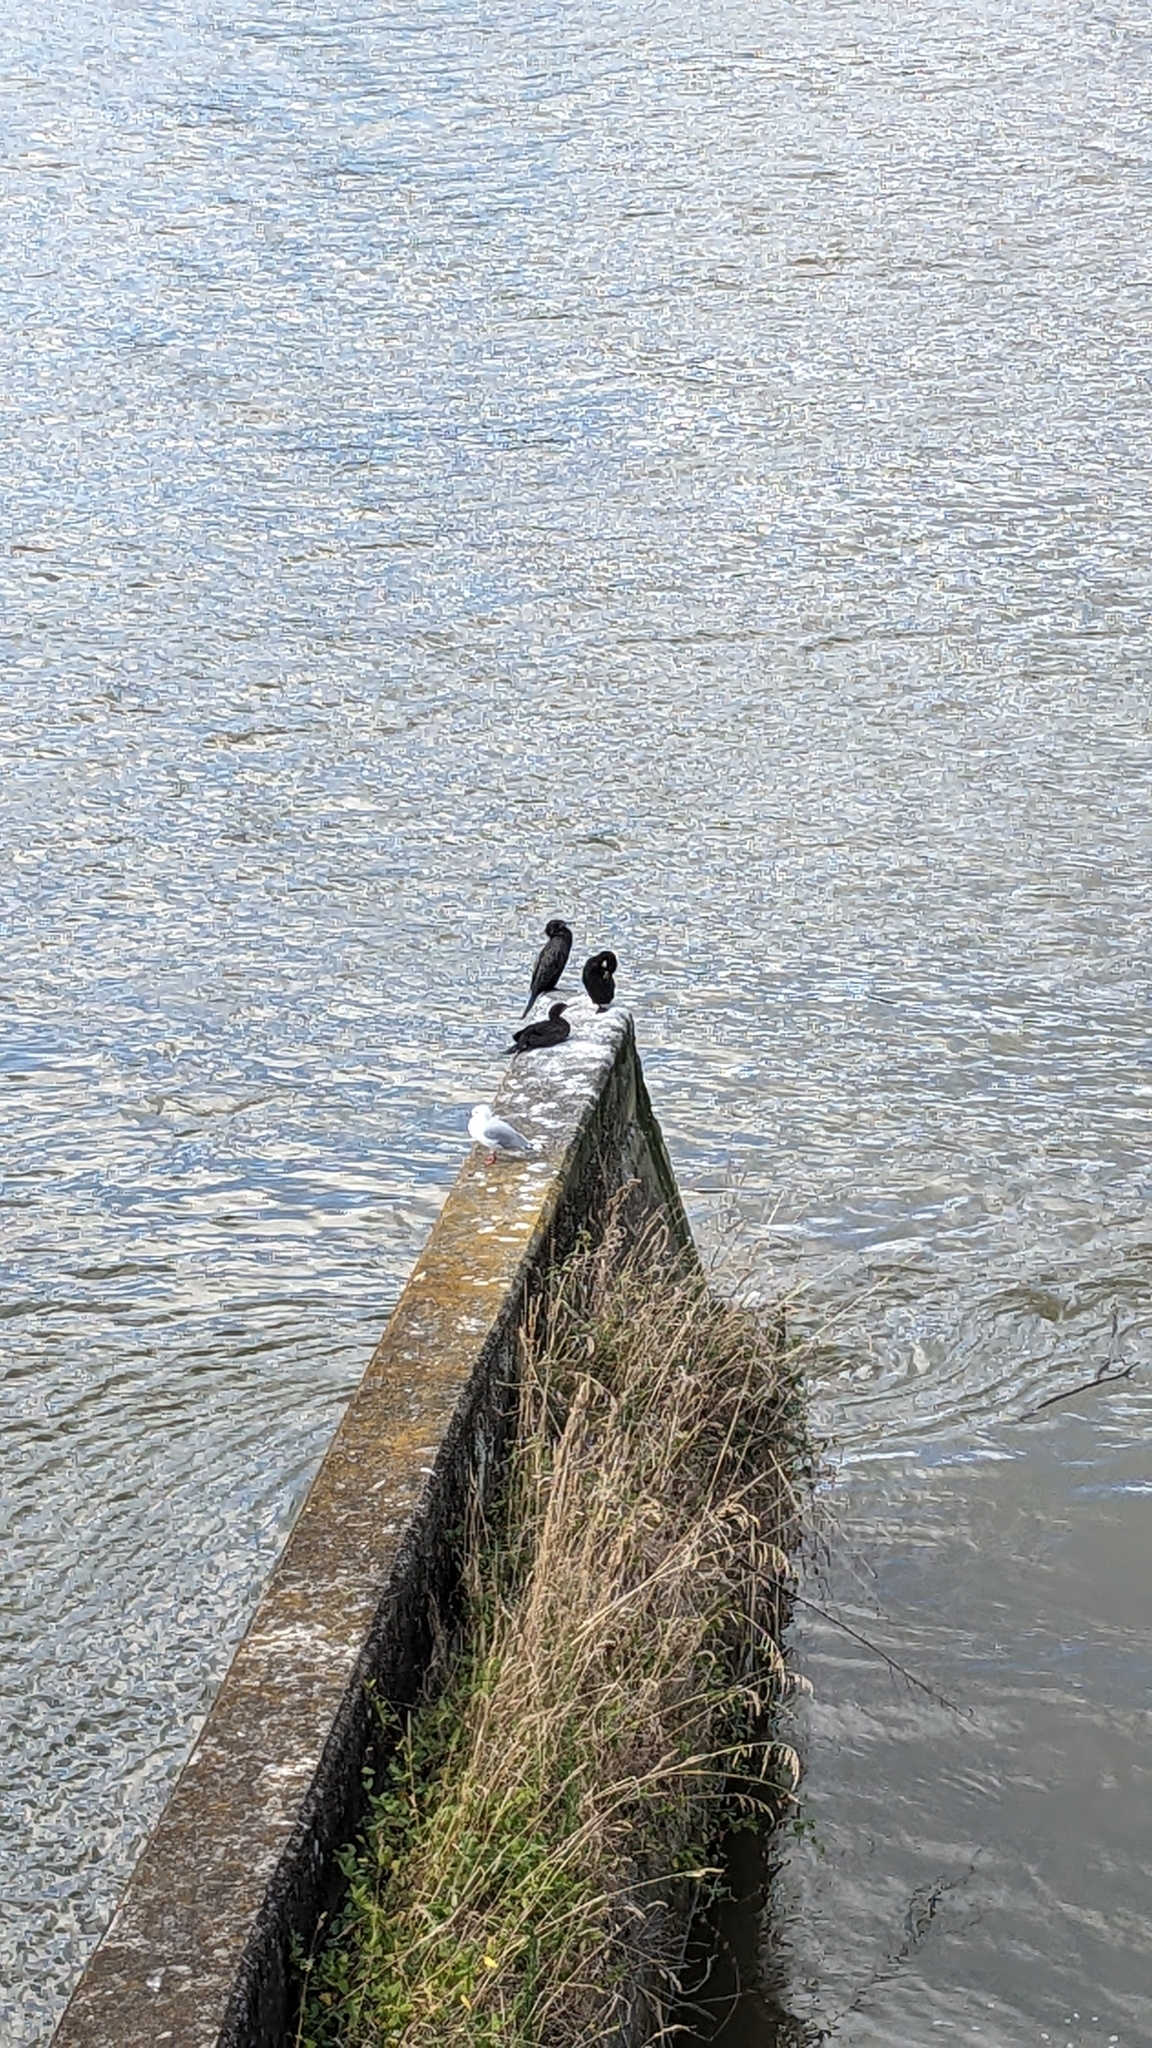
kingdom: Animalia
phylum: Chordata
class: Aves
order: Suliformes
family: Phalacrocoracidae
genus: Phalacrocorax
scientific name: Phalacrocorax sulcirostris
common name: Little black cormorant
